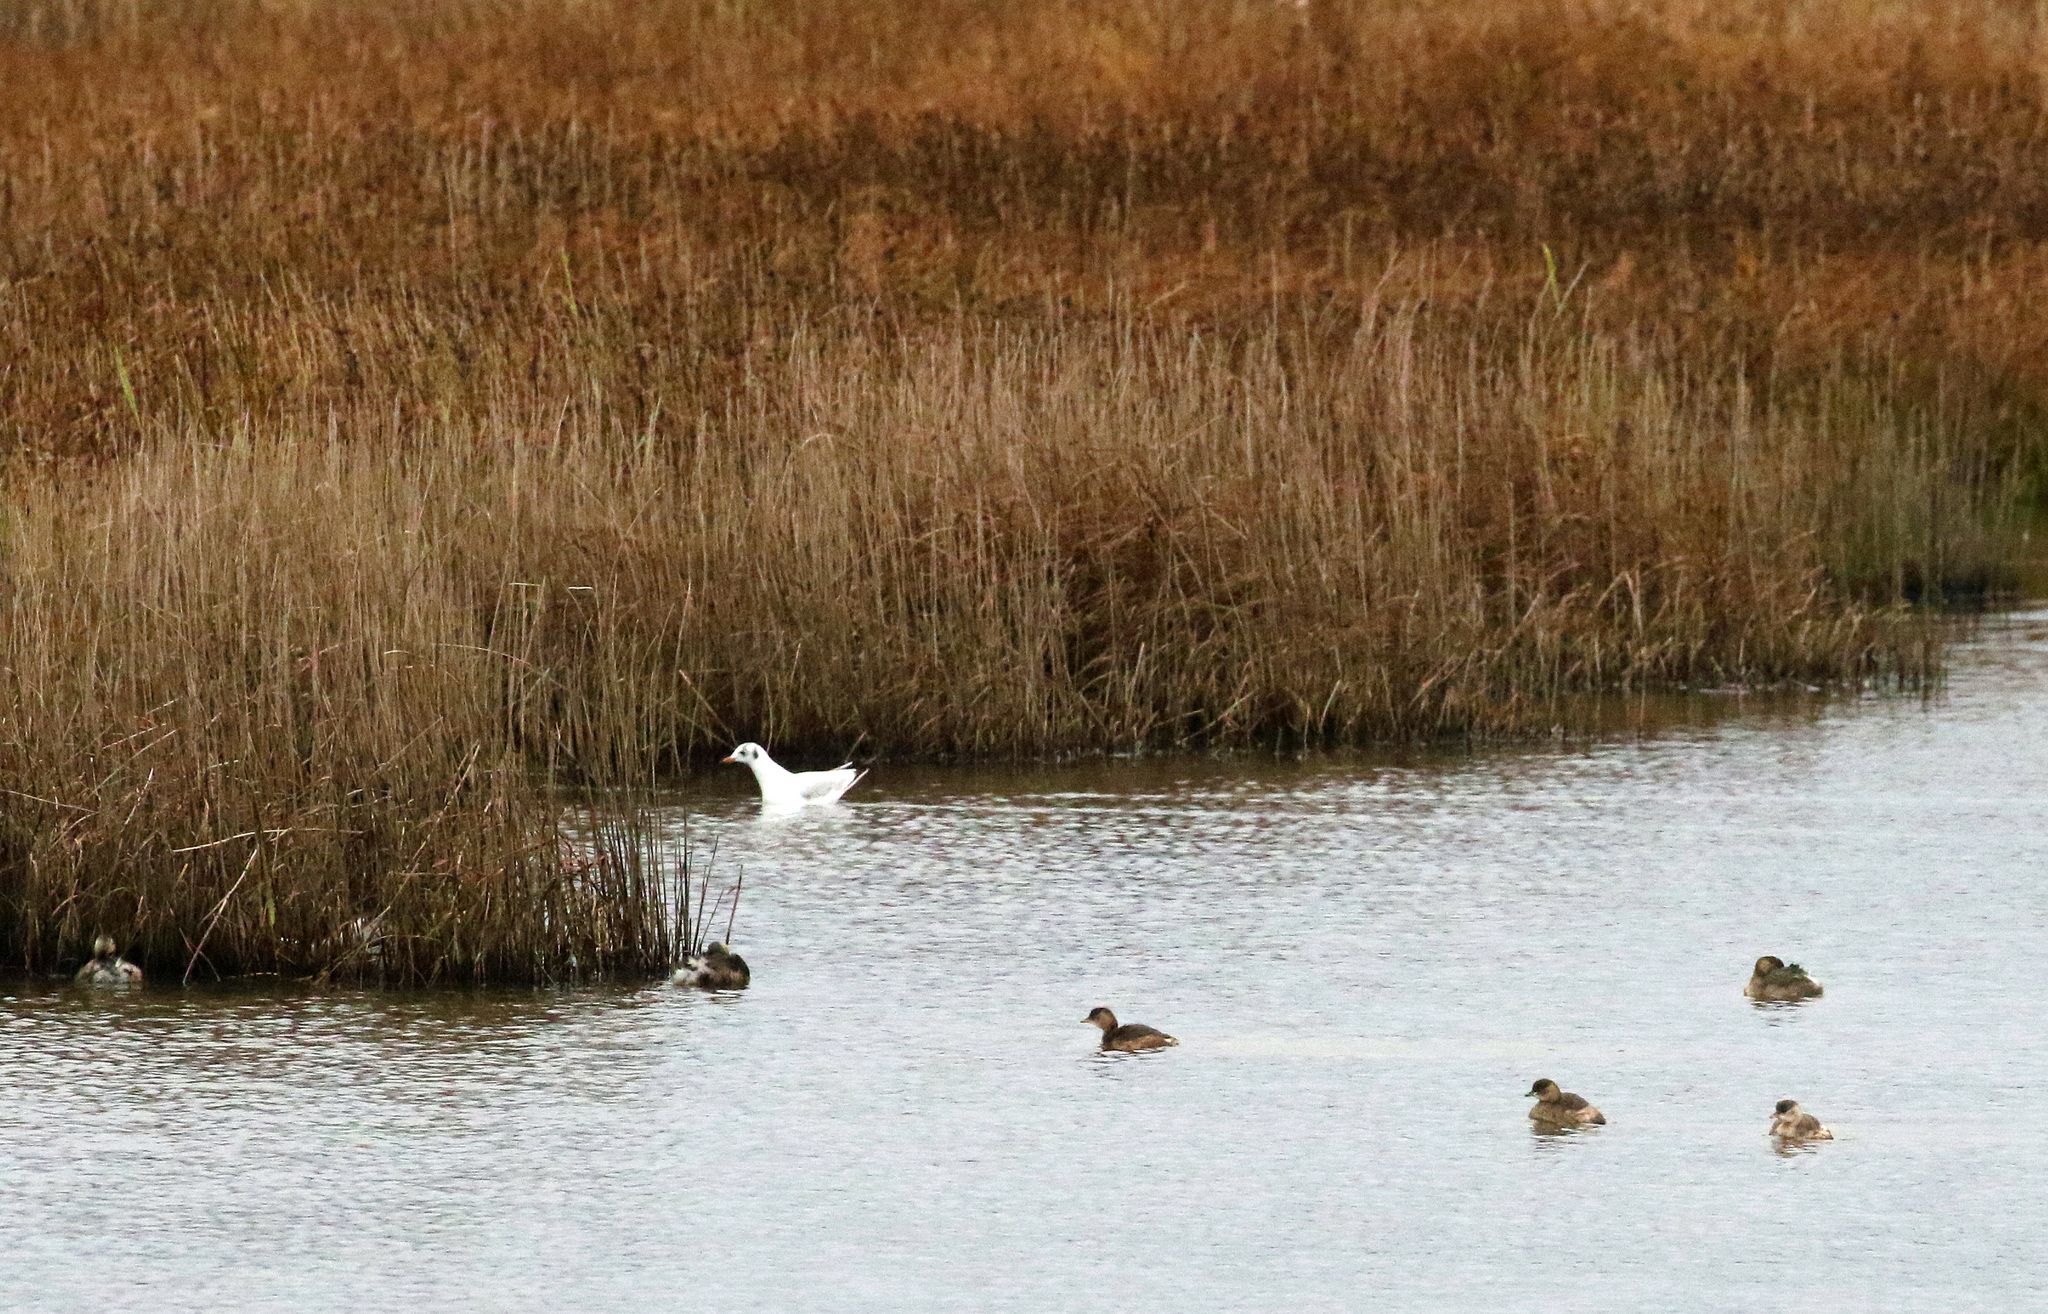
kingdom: Animalia
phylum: Chordata
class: Aves
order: Podicipediformes
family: Podicipedidae
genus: Tachybaptus
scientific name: Tachybaptus ruficollis
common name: Little grebe
